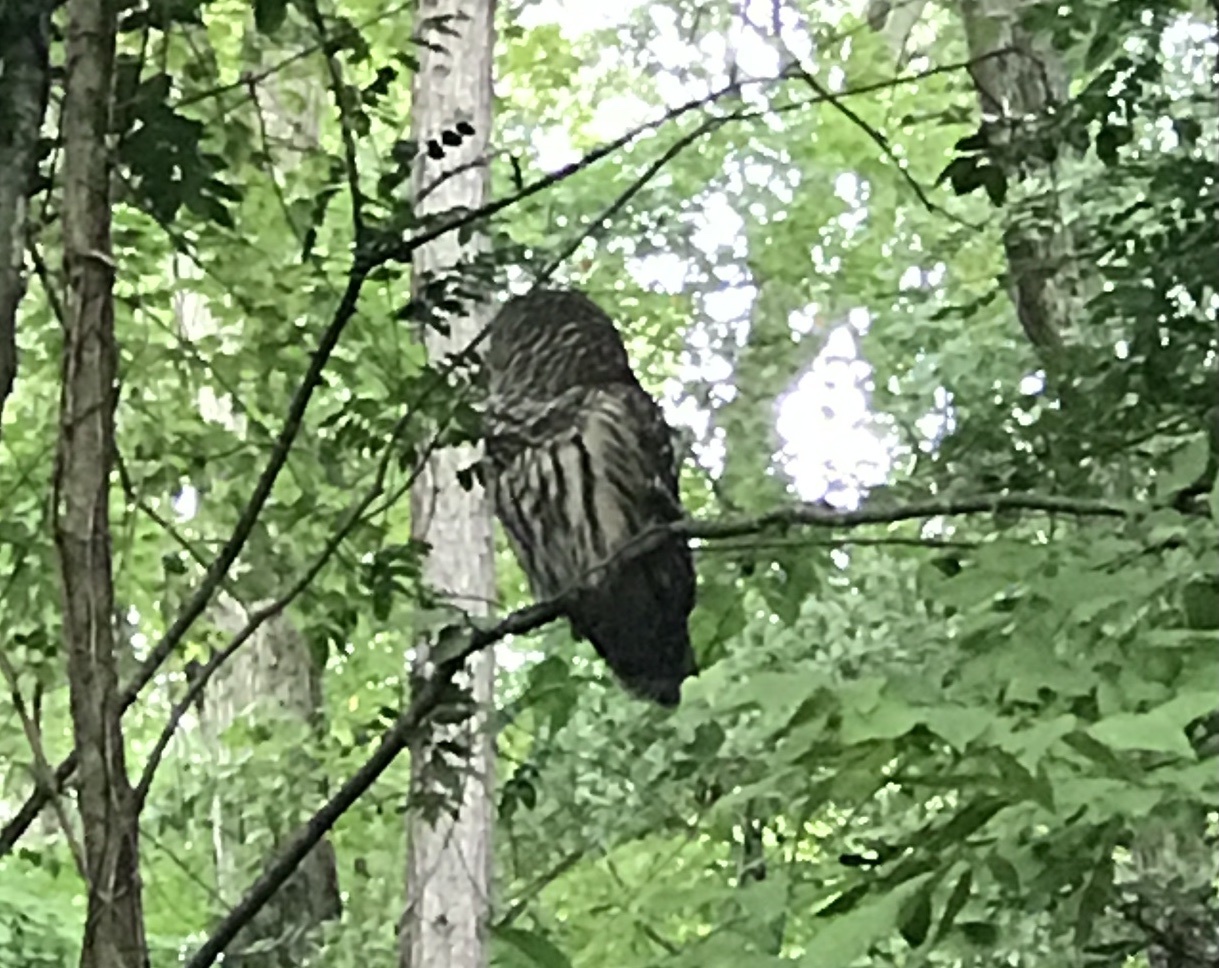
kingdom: Animalia
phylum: Chordata
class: Aves
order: Strigiformes
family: Strigidae
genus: Strix
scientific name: Strix varia
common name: Barred owl
